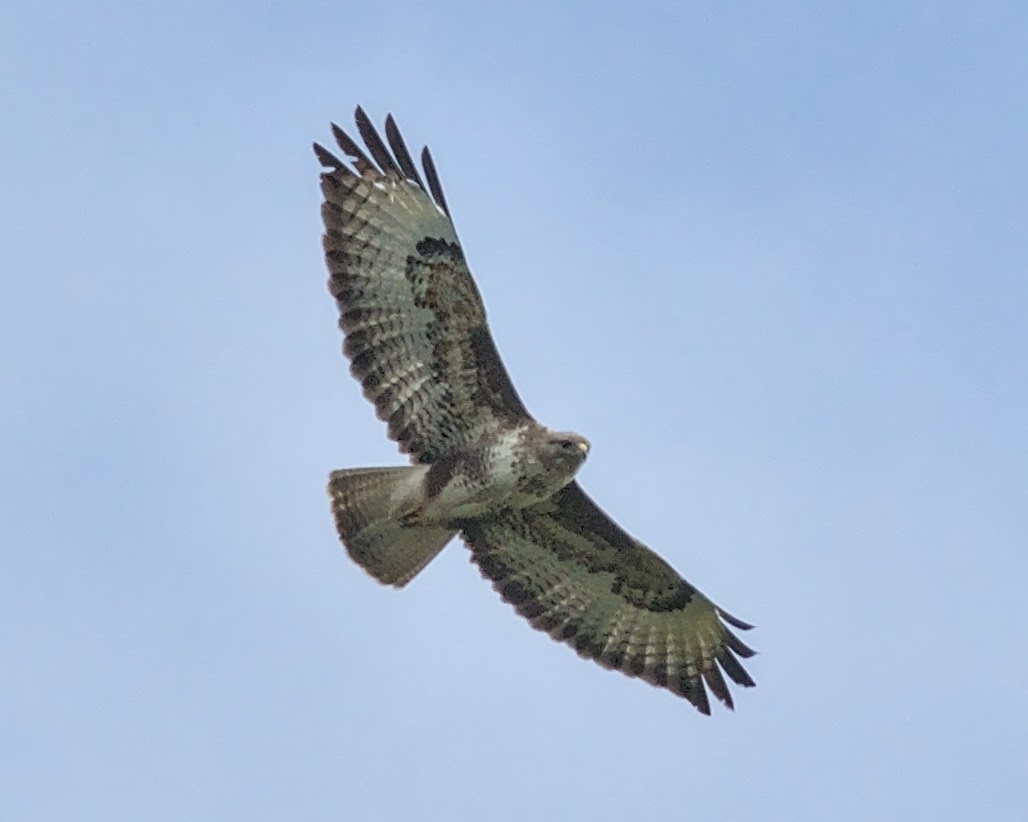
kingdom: Animalia
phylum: Chordata
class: Aves
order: Accipitriformes
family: Accipitridae
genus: Buteo
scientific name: Buteo buteo
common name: Common buzzard
